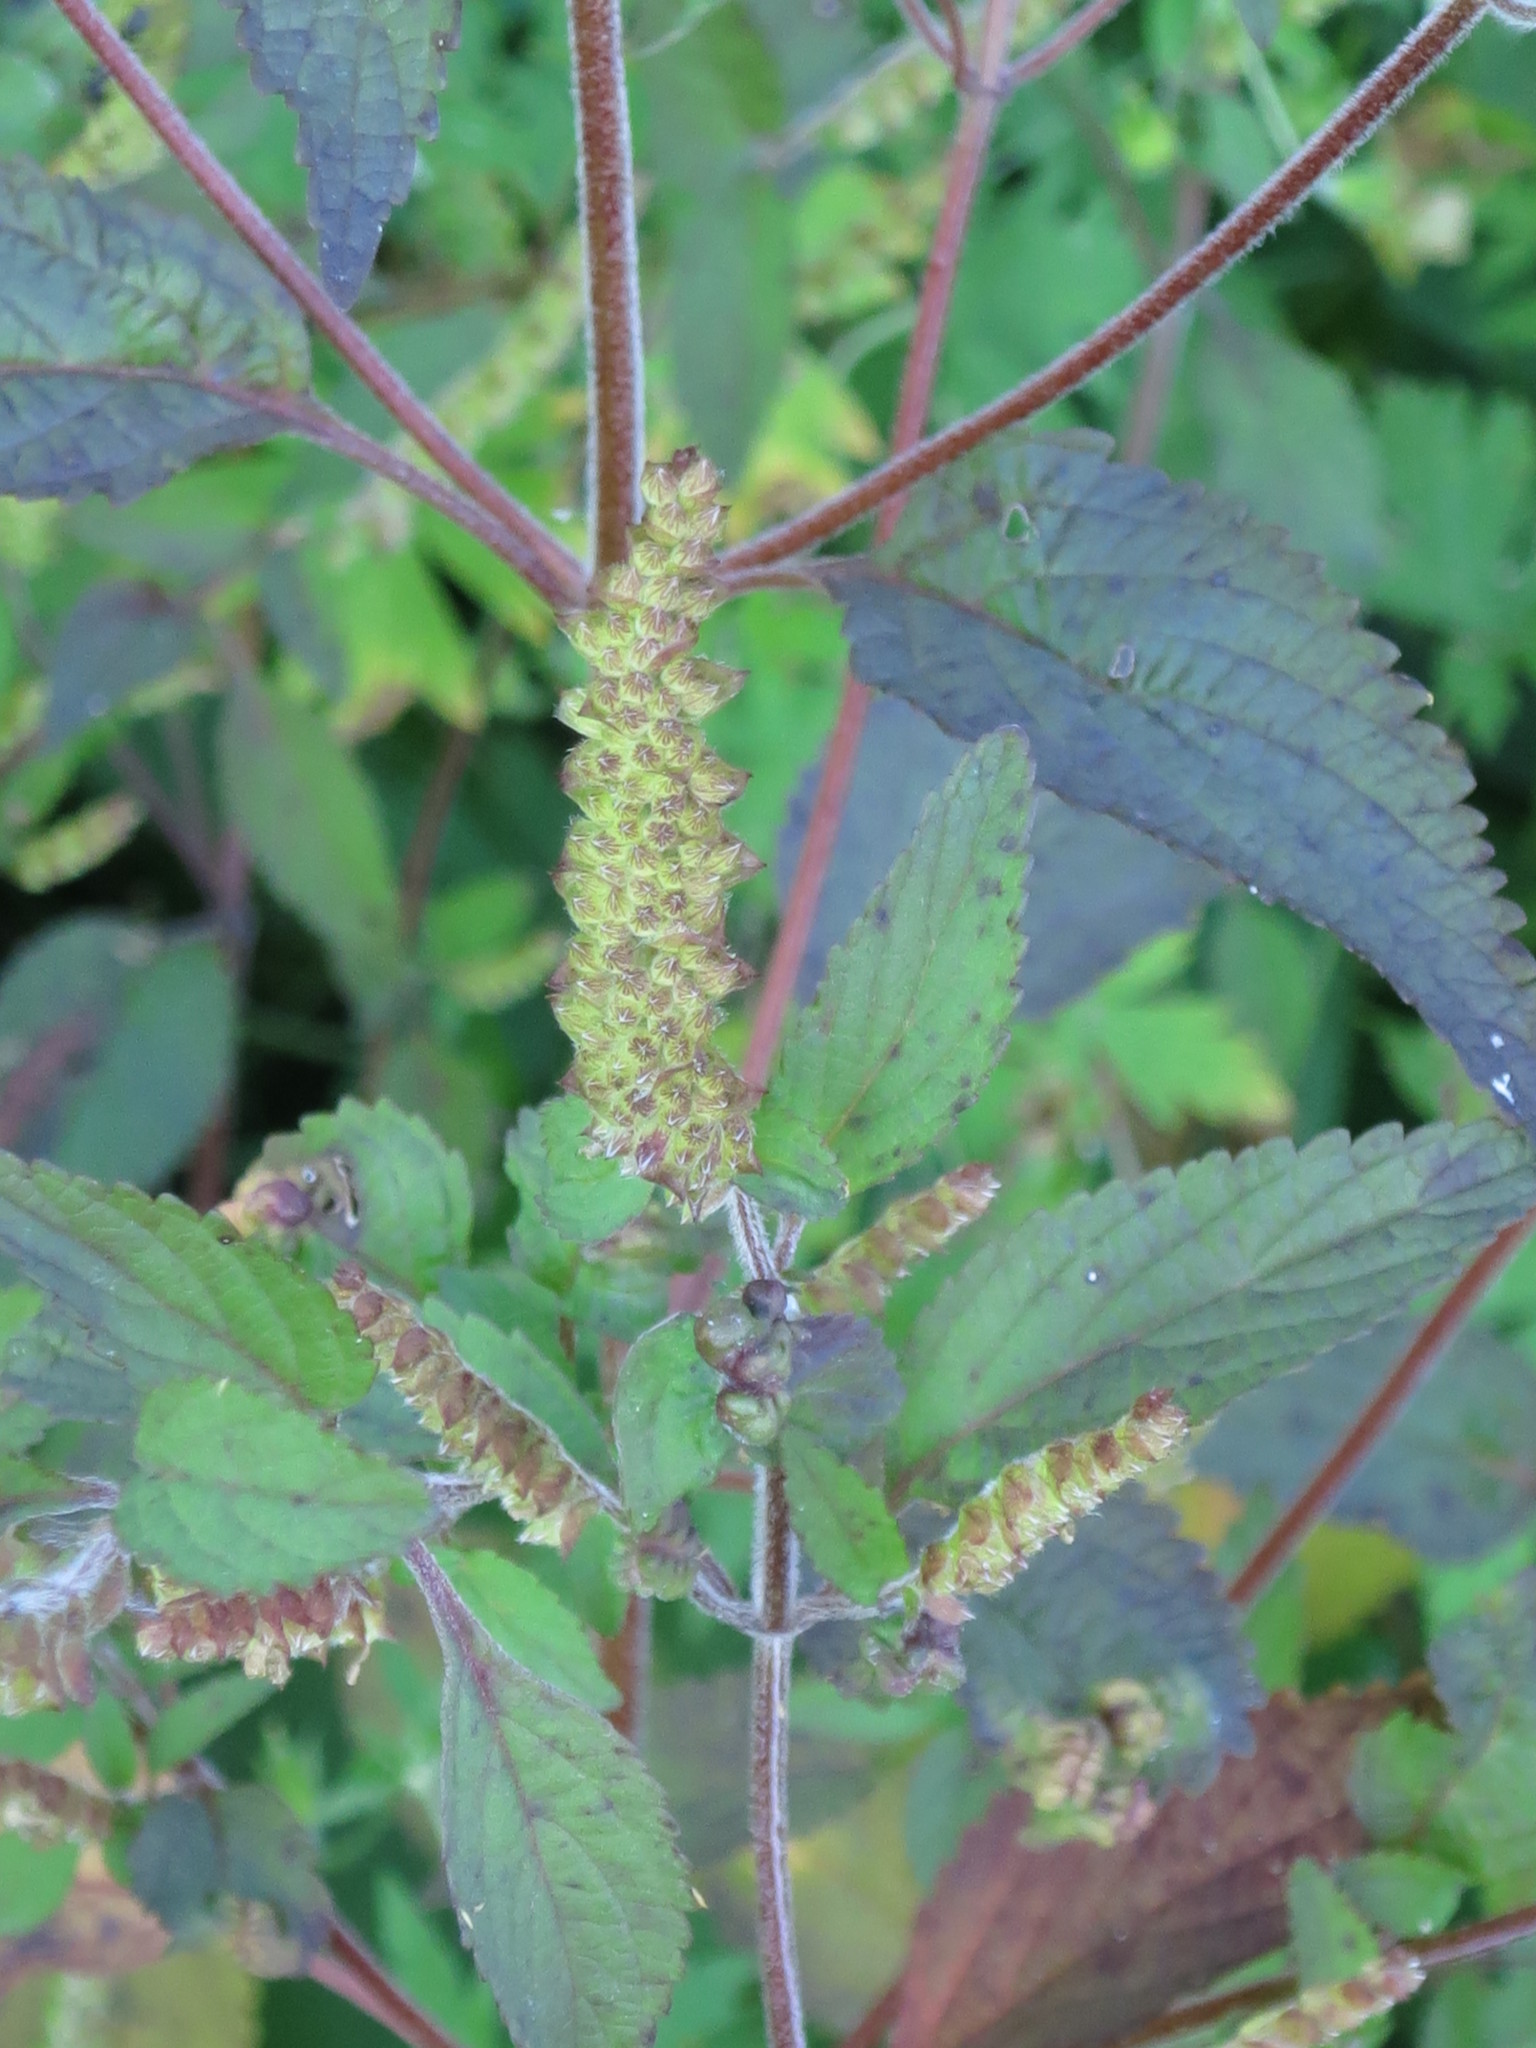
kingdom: Plantae
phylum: Tracheophyta
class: Magnoliopsida
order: Lamiales
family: Lamiaceae
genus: Elsholtzia
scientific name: Elsholtzia ciliata
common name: Ciliate elsholtzia
